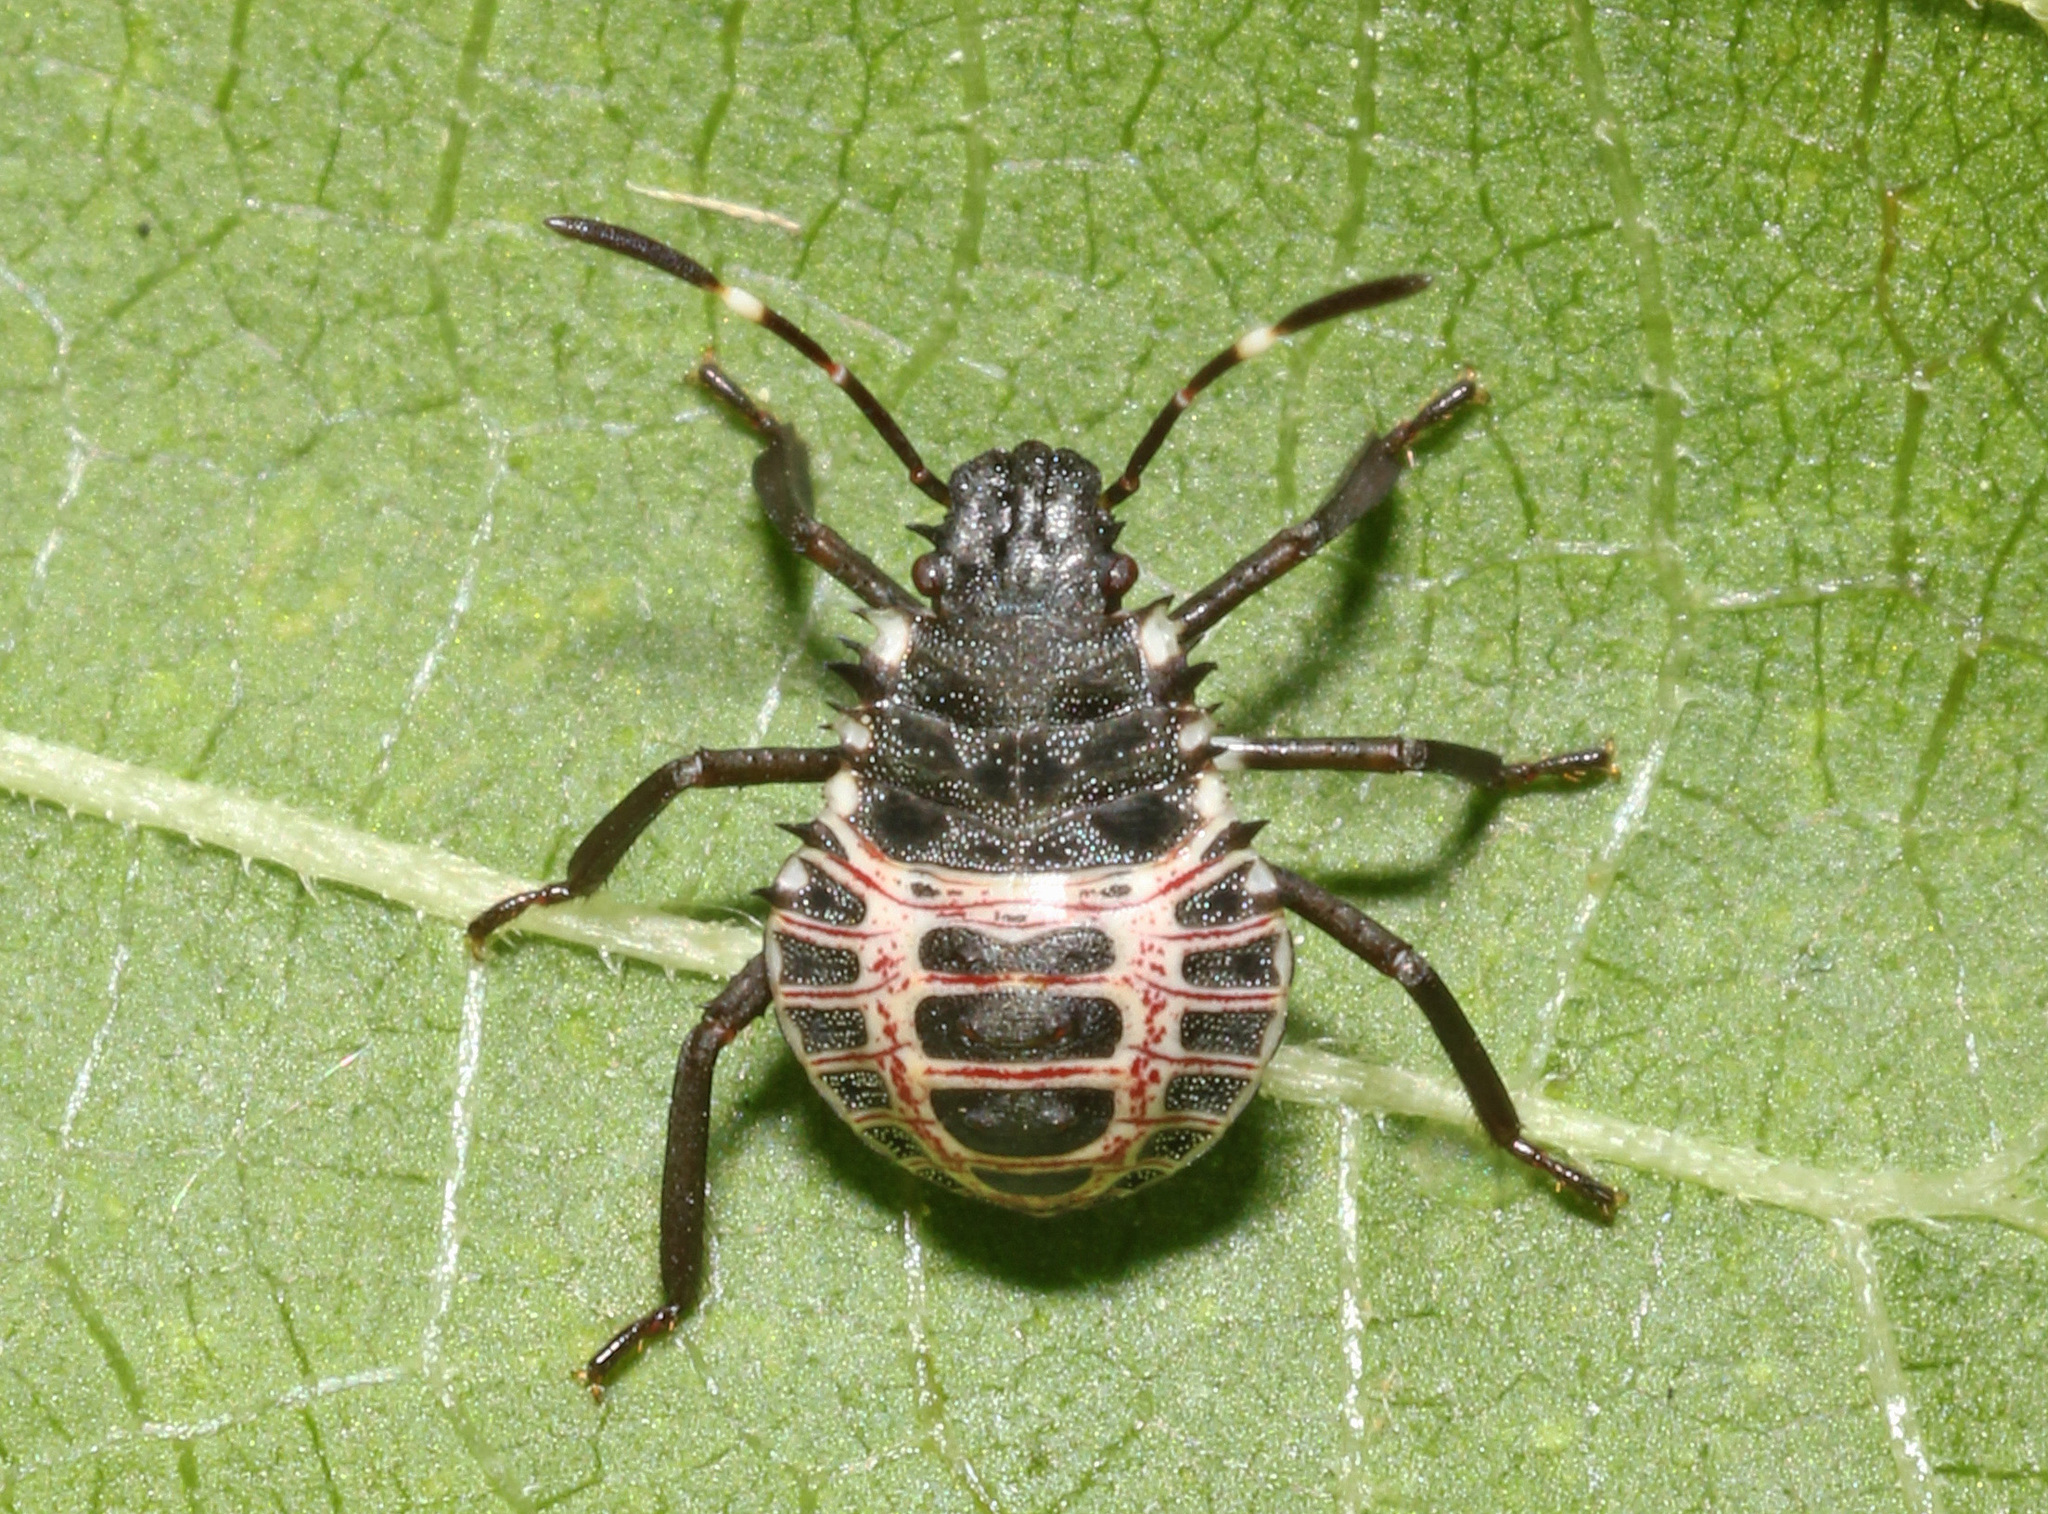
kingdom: Animalia
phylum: Arthropoda
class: Insecta
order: Hemiptera
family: Pentatomidae
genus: Halyomorpha
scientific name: Halyomorpha halys
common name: Brown marmorated stink bug
